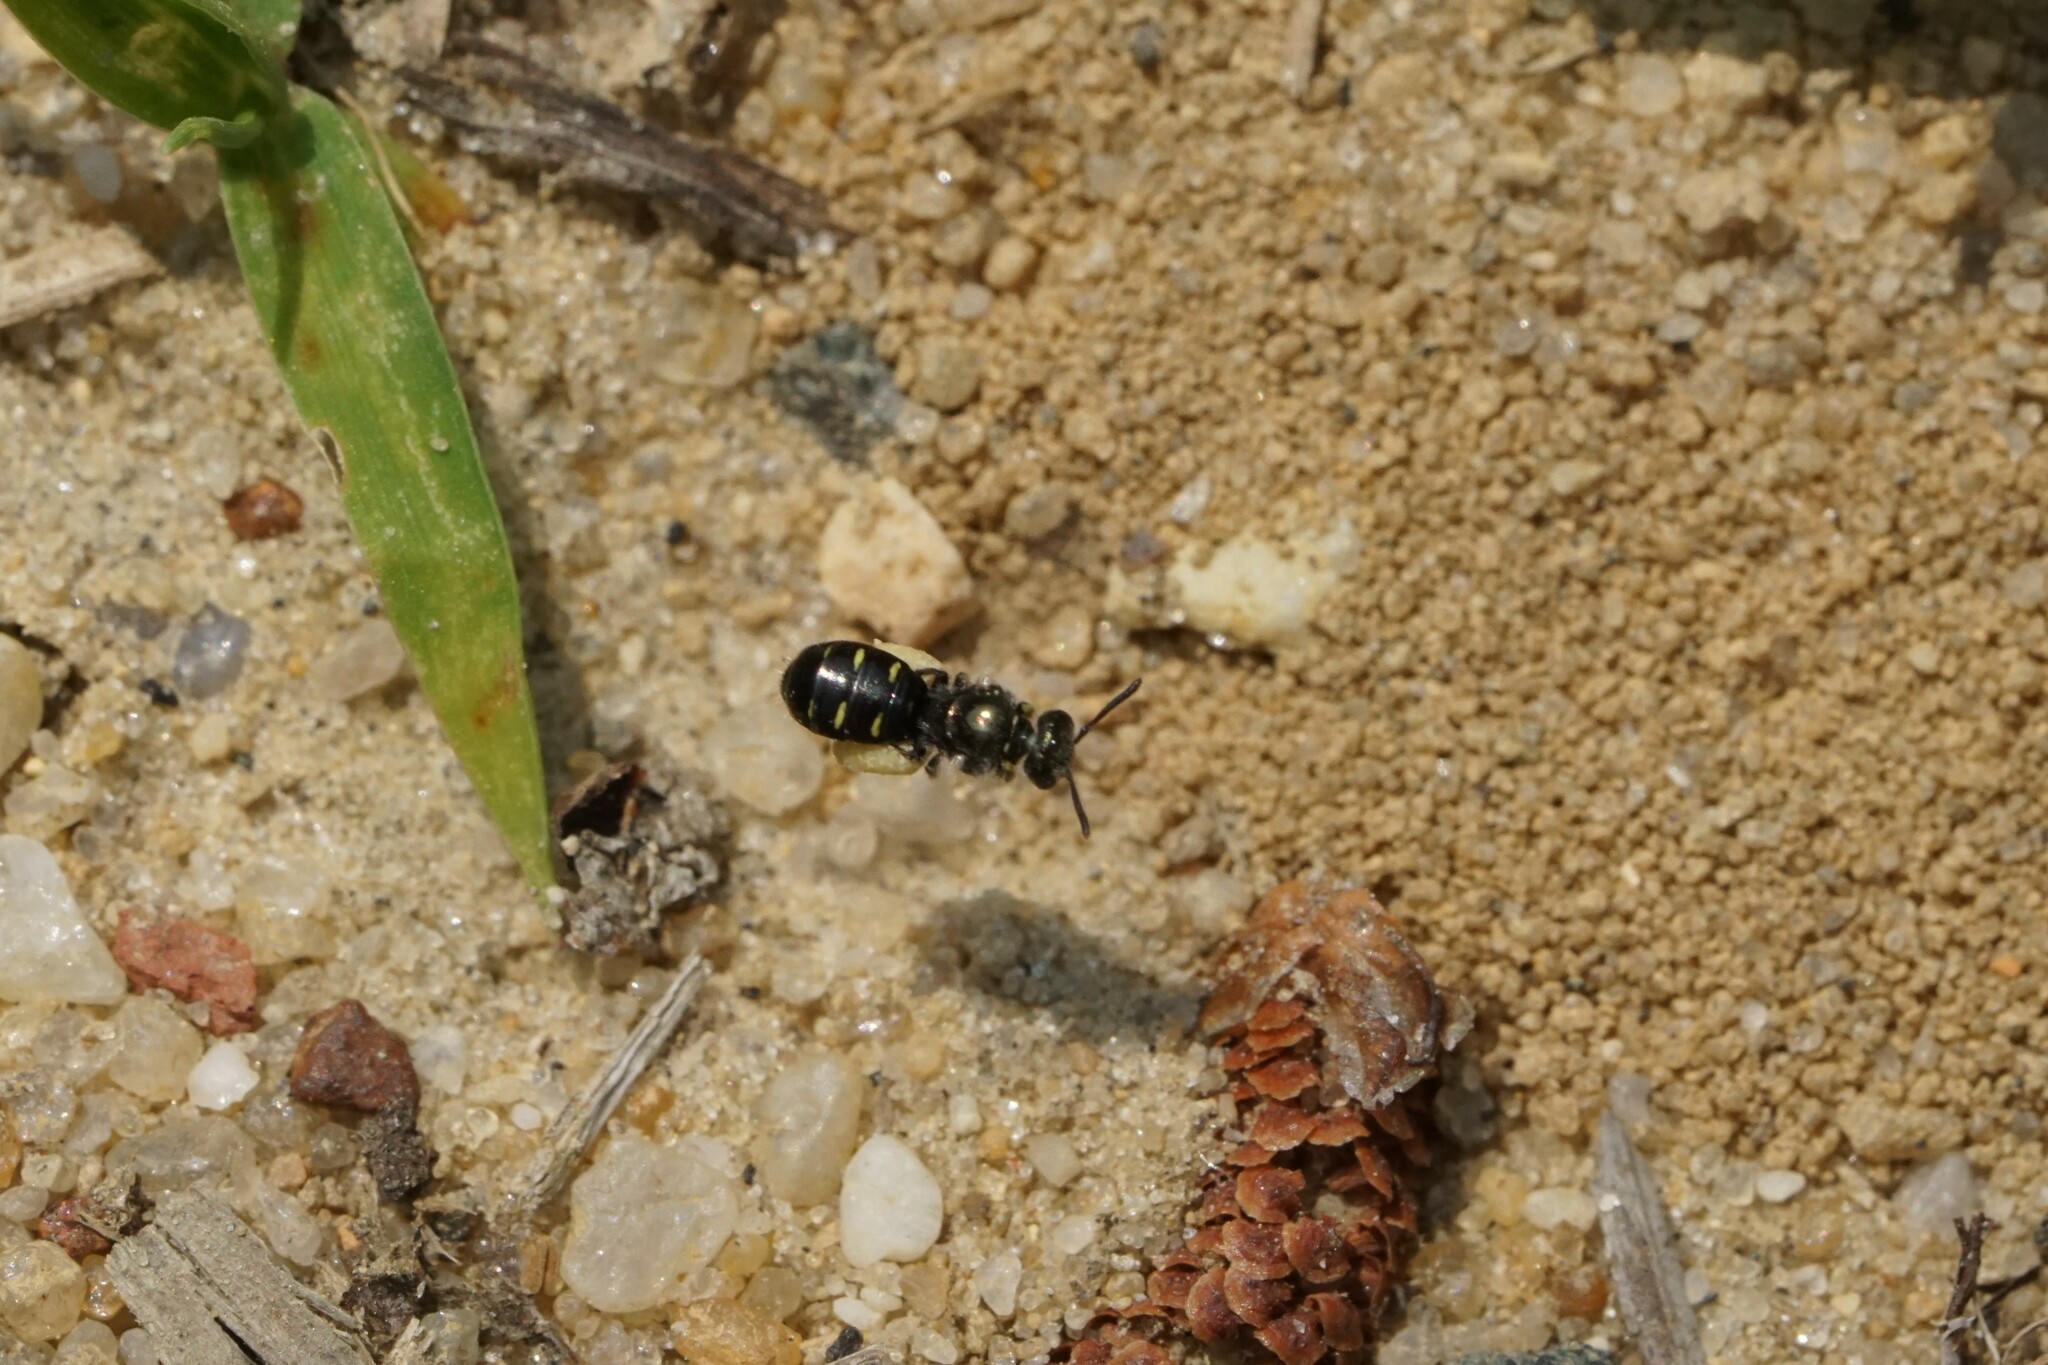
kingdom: Animalia
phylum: Arthropoda
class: Insecta
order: Hymenoptera
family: Andrenidae
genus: Perdita
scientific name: Perdita bradleyi
